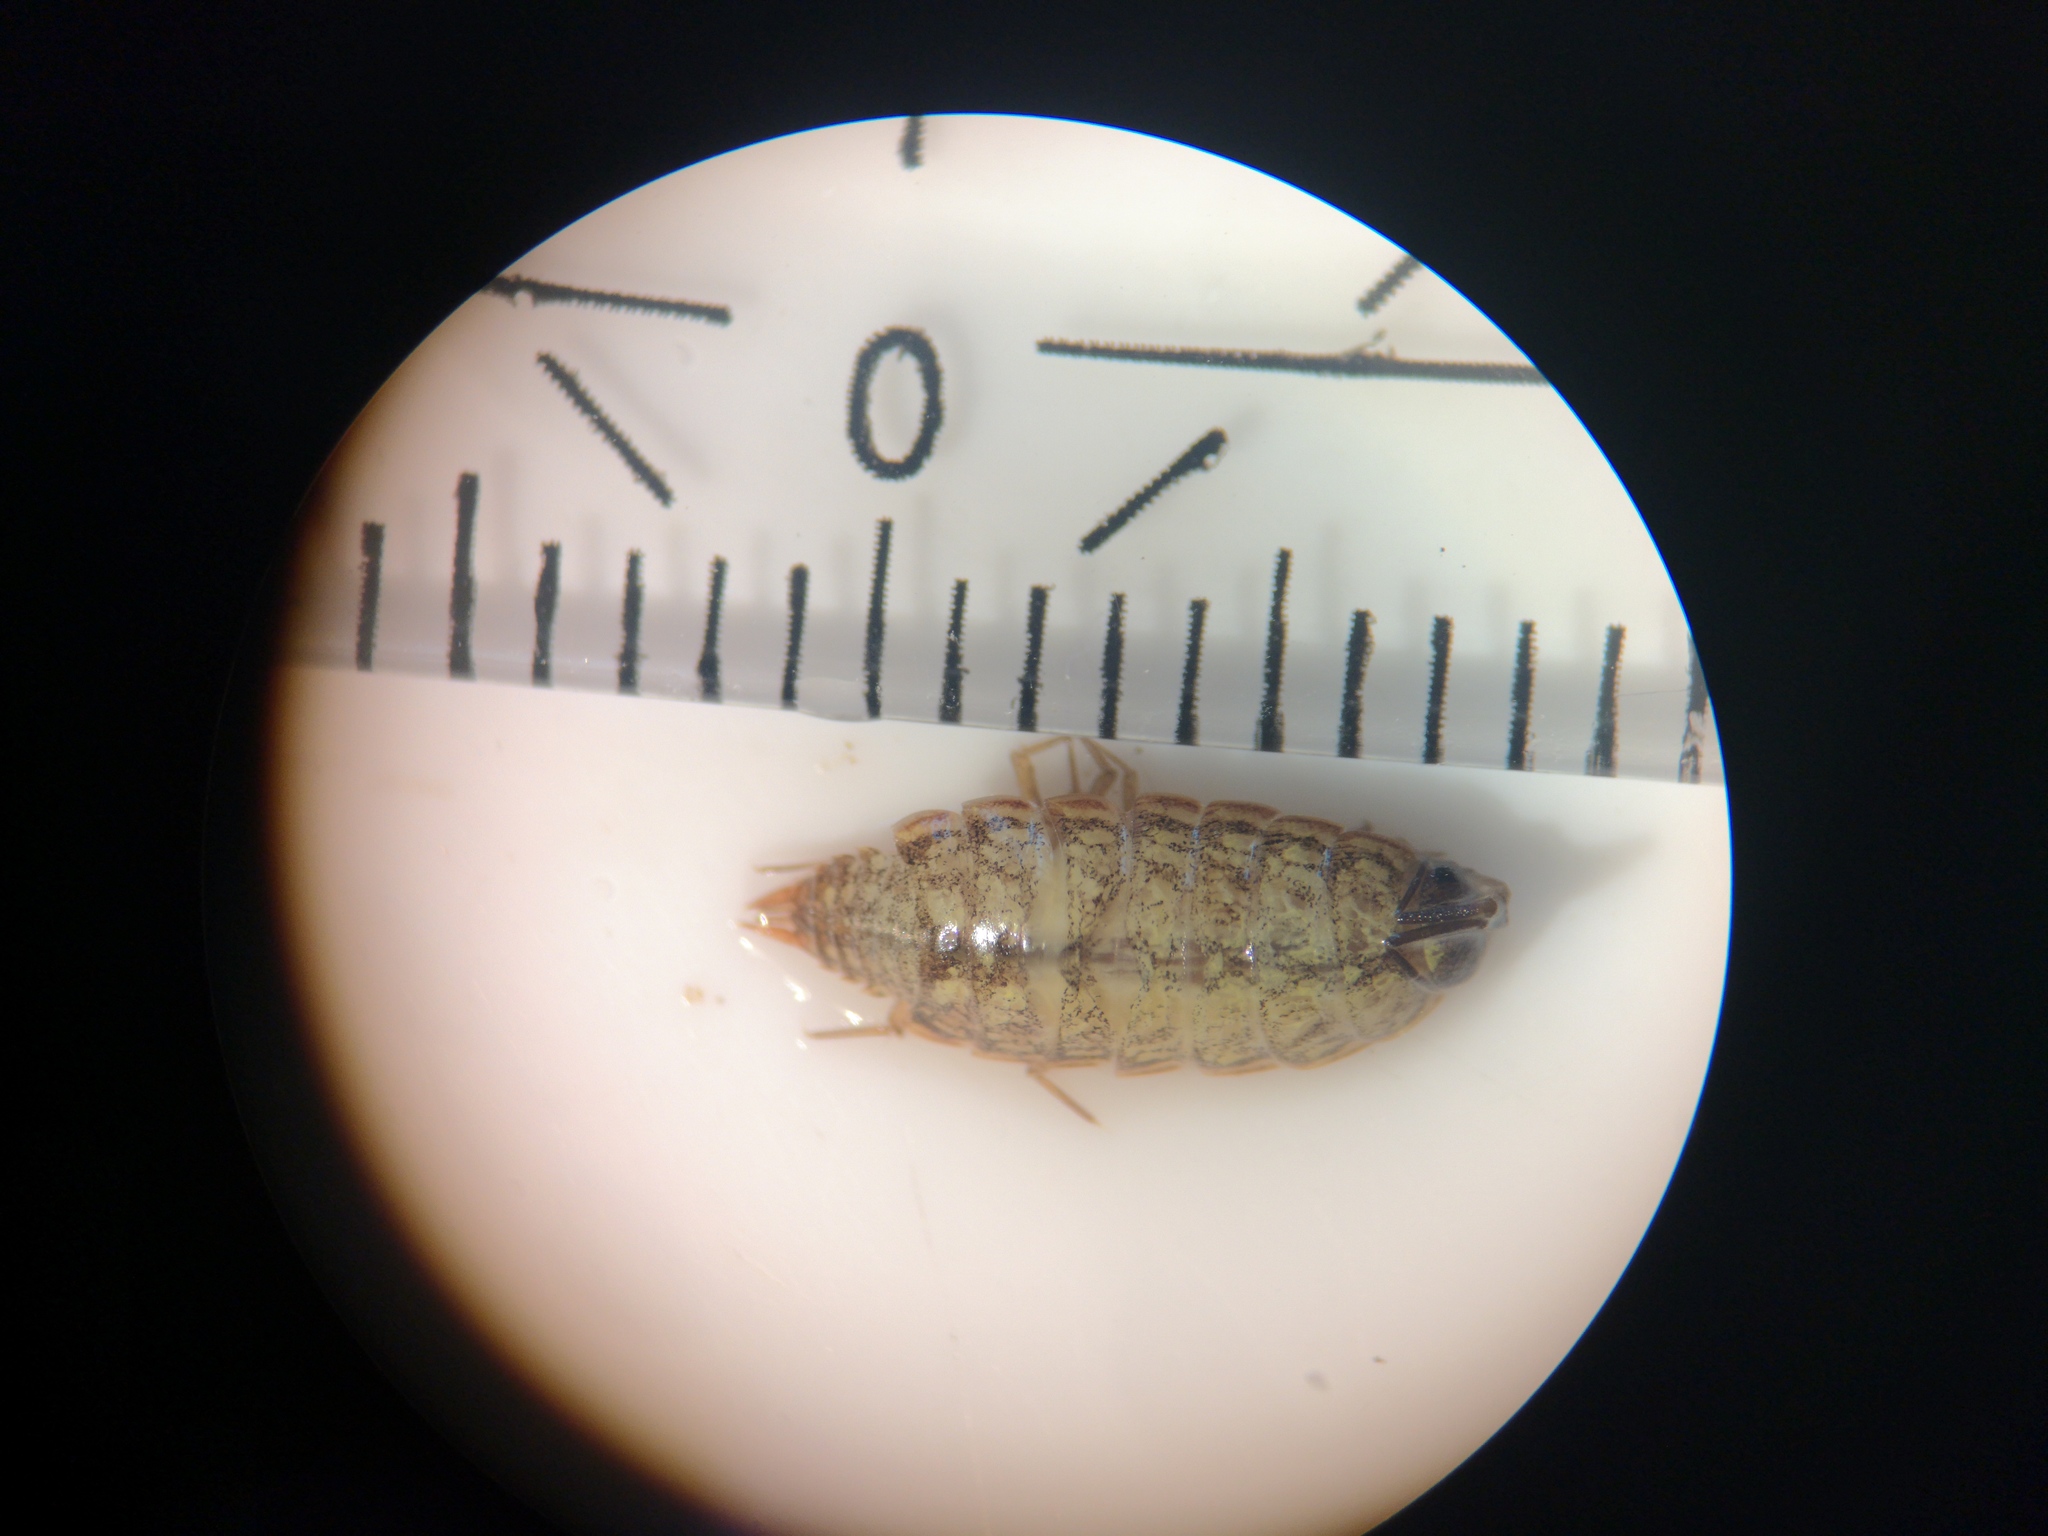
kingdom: Animalia
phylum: Arthropoda
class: Malacostraca
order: Isopoda
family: Philosciidae
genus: Philoscia
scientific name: Philoscia muscorum
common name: Common striped woodlouse
